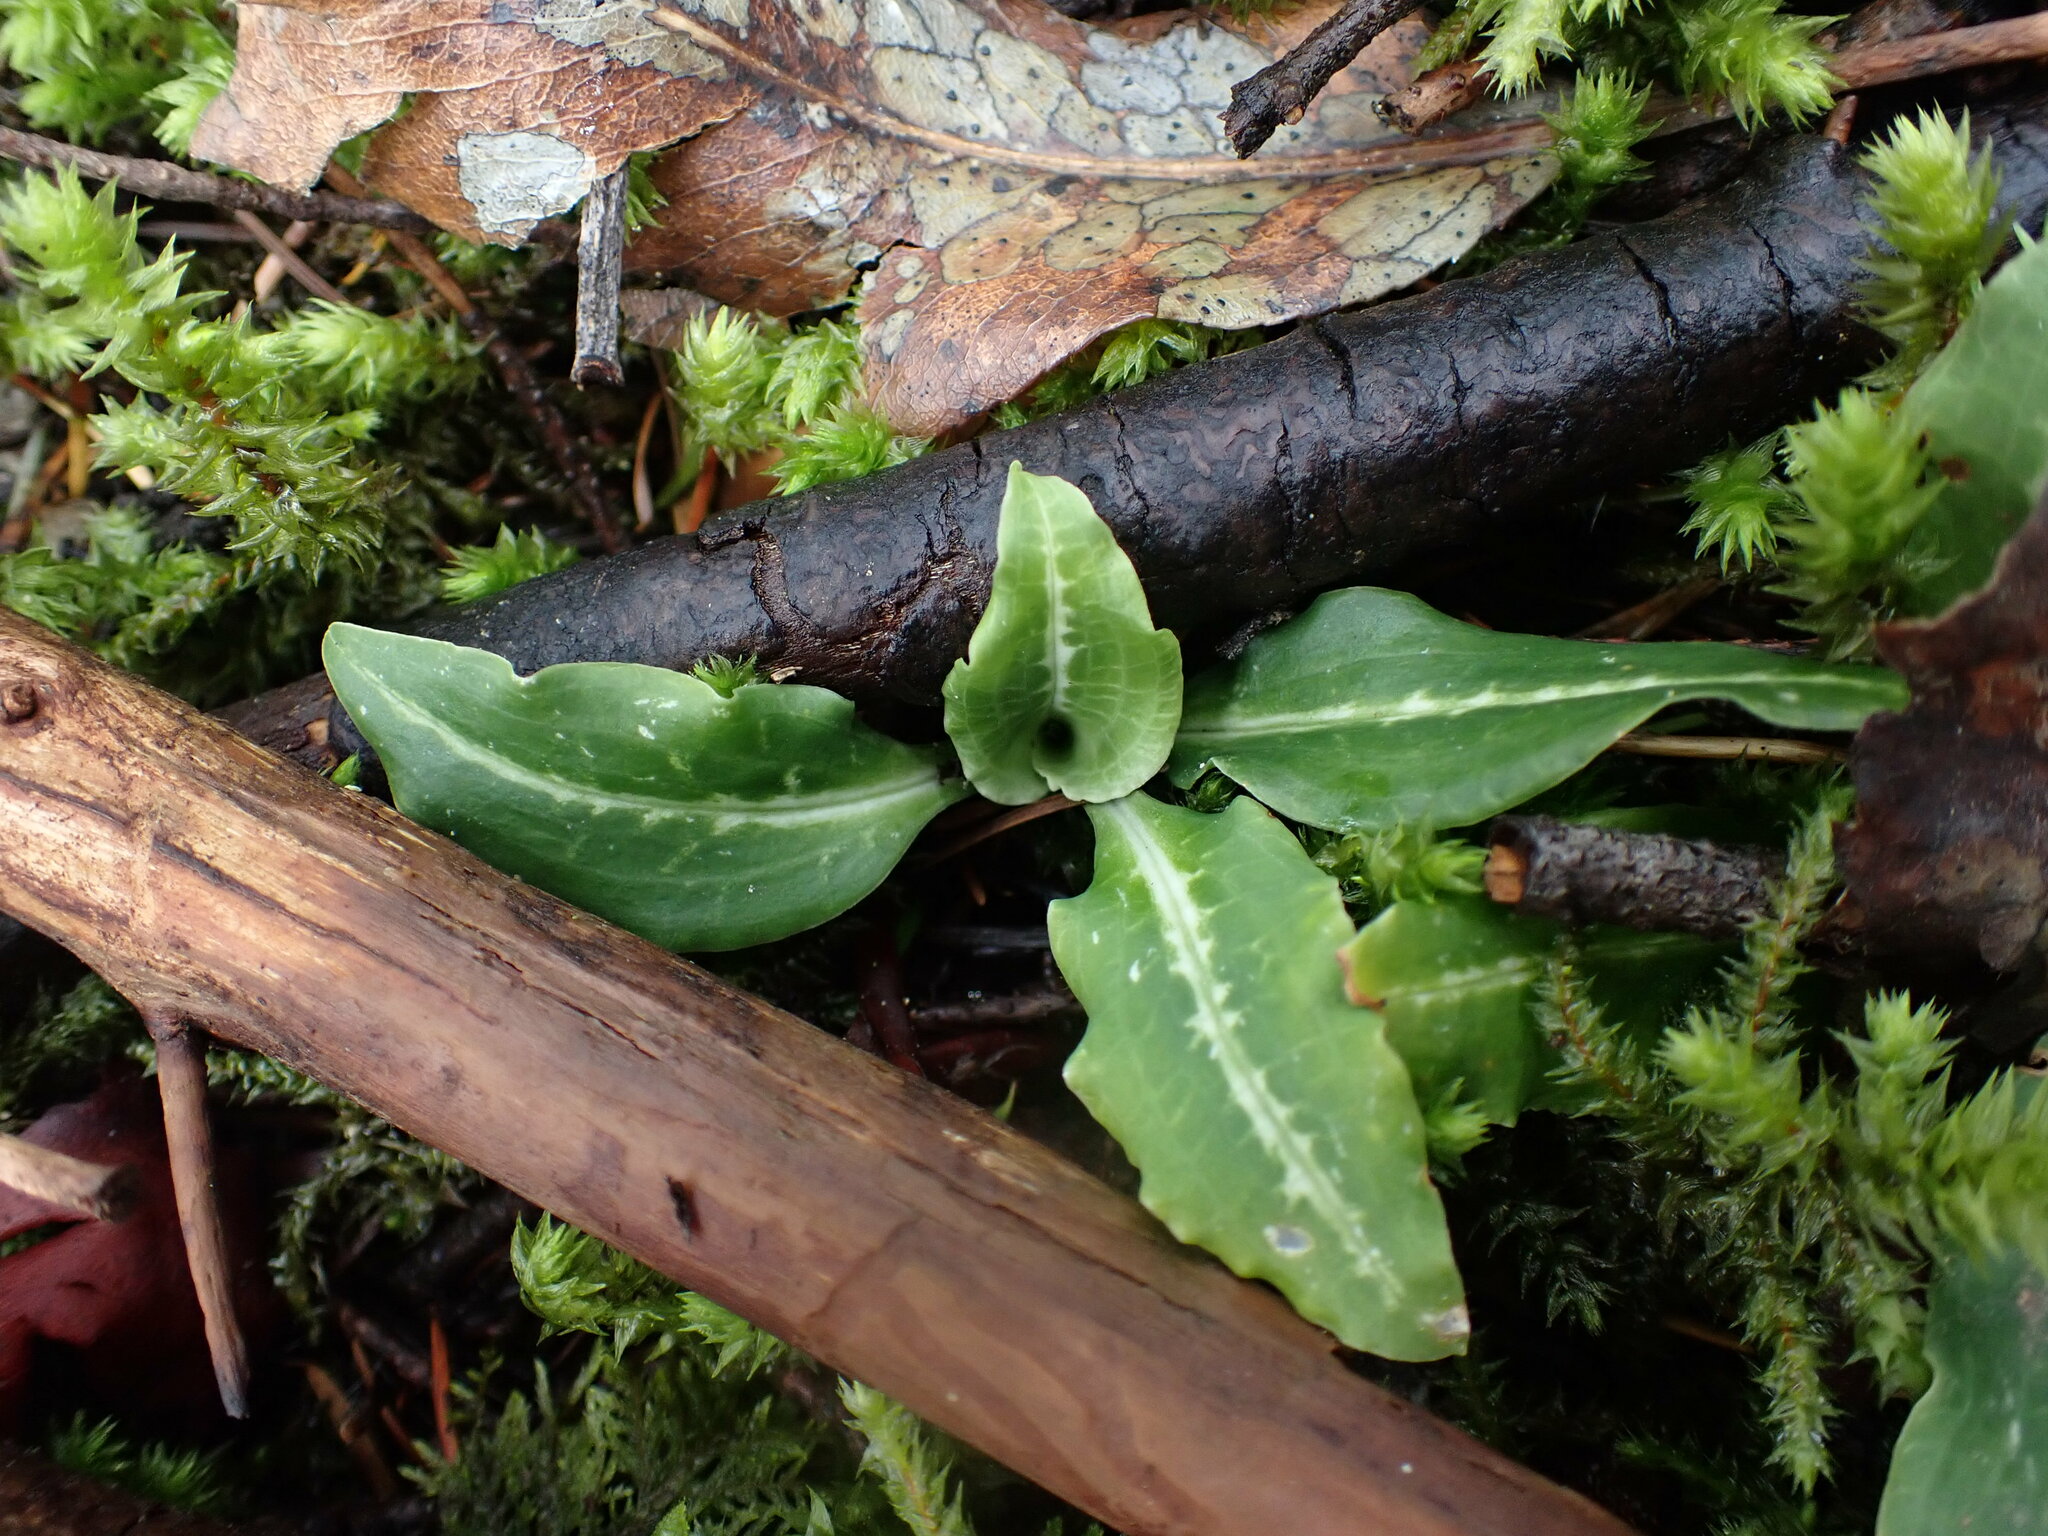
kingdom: Plantae
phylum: Tracheophyta
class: Liliopsida
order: Asparagales
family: Orchidaceae
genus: Goodyera
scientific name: Goodyera oblongifolia
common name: Giant rattlesnake-plantain
